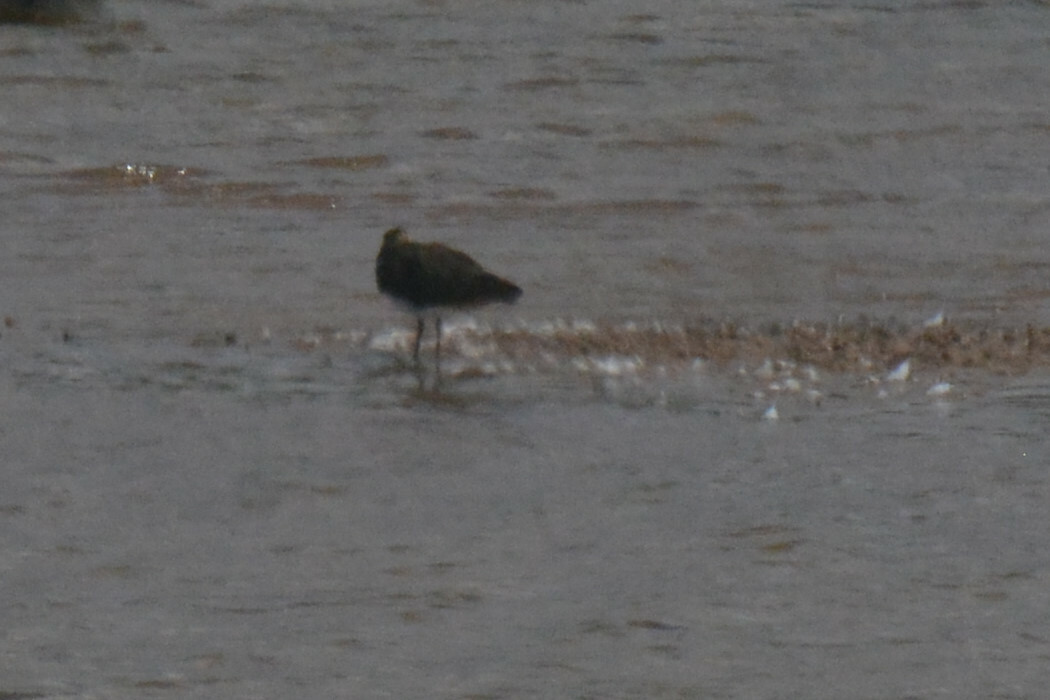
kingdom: Animalia
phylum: Chordata
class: Aves
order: Charadriiformes
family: Charadriidae
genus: Vanellus
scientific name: Vanellus vanellus
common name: Northern lapwing
